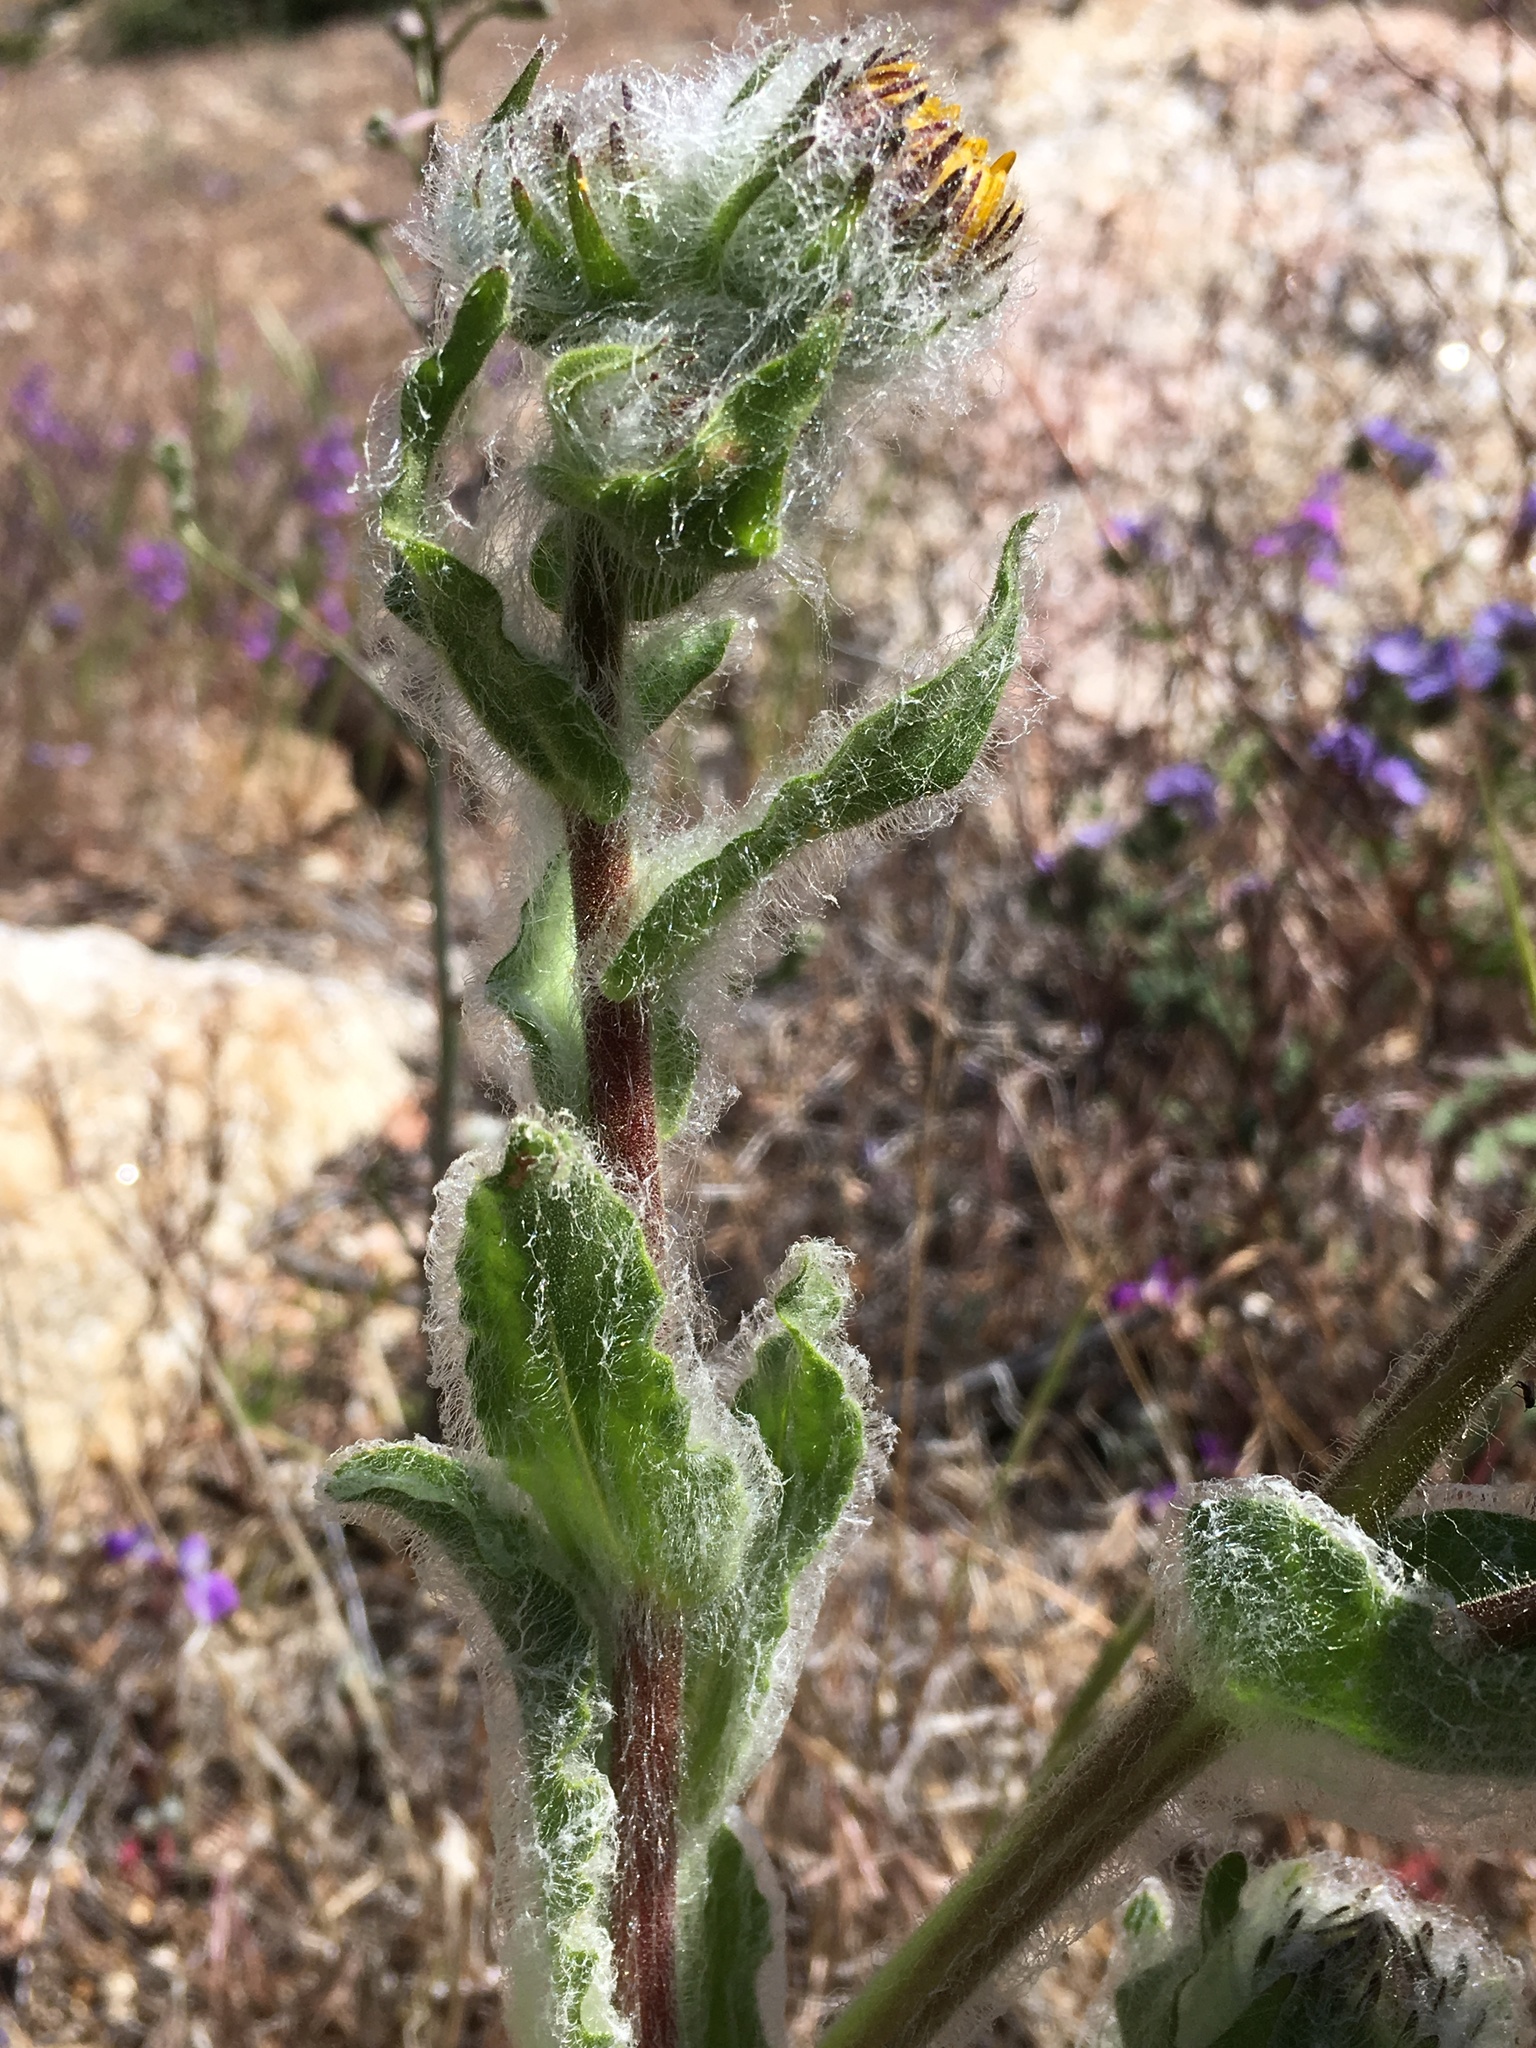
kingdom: Plantae
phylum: Tracheophyta
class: Magnoliopsida
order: Asterales
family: Asteraceae
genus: Hulsea
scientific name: Hulsea californica
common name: San diego alpinegold
